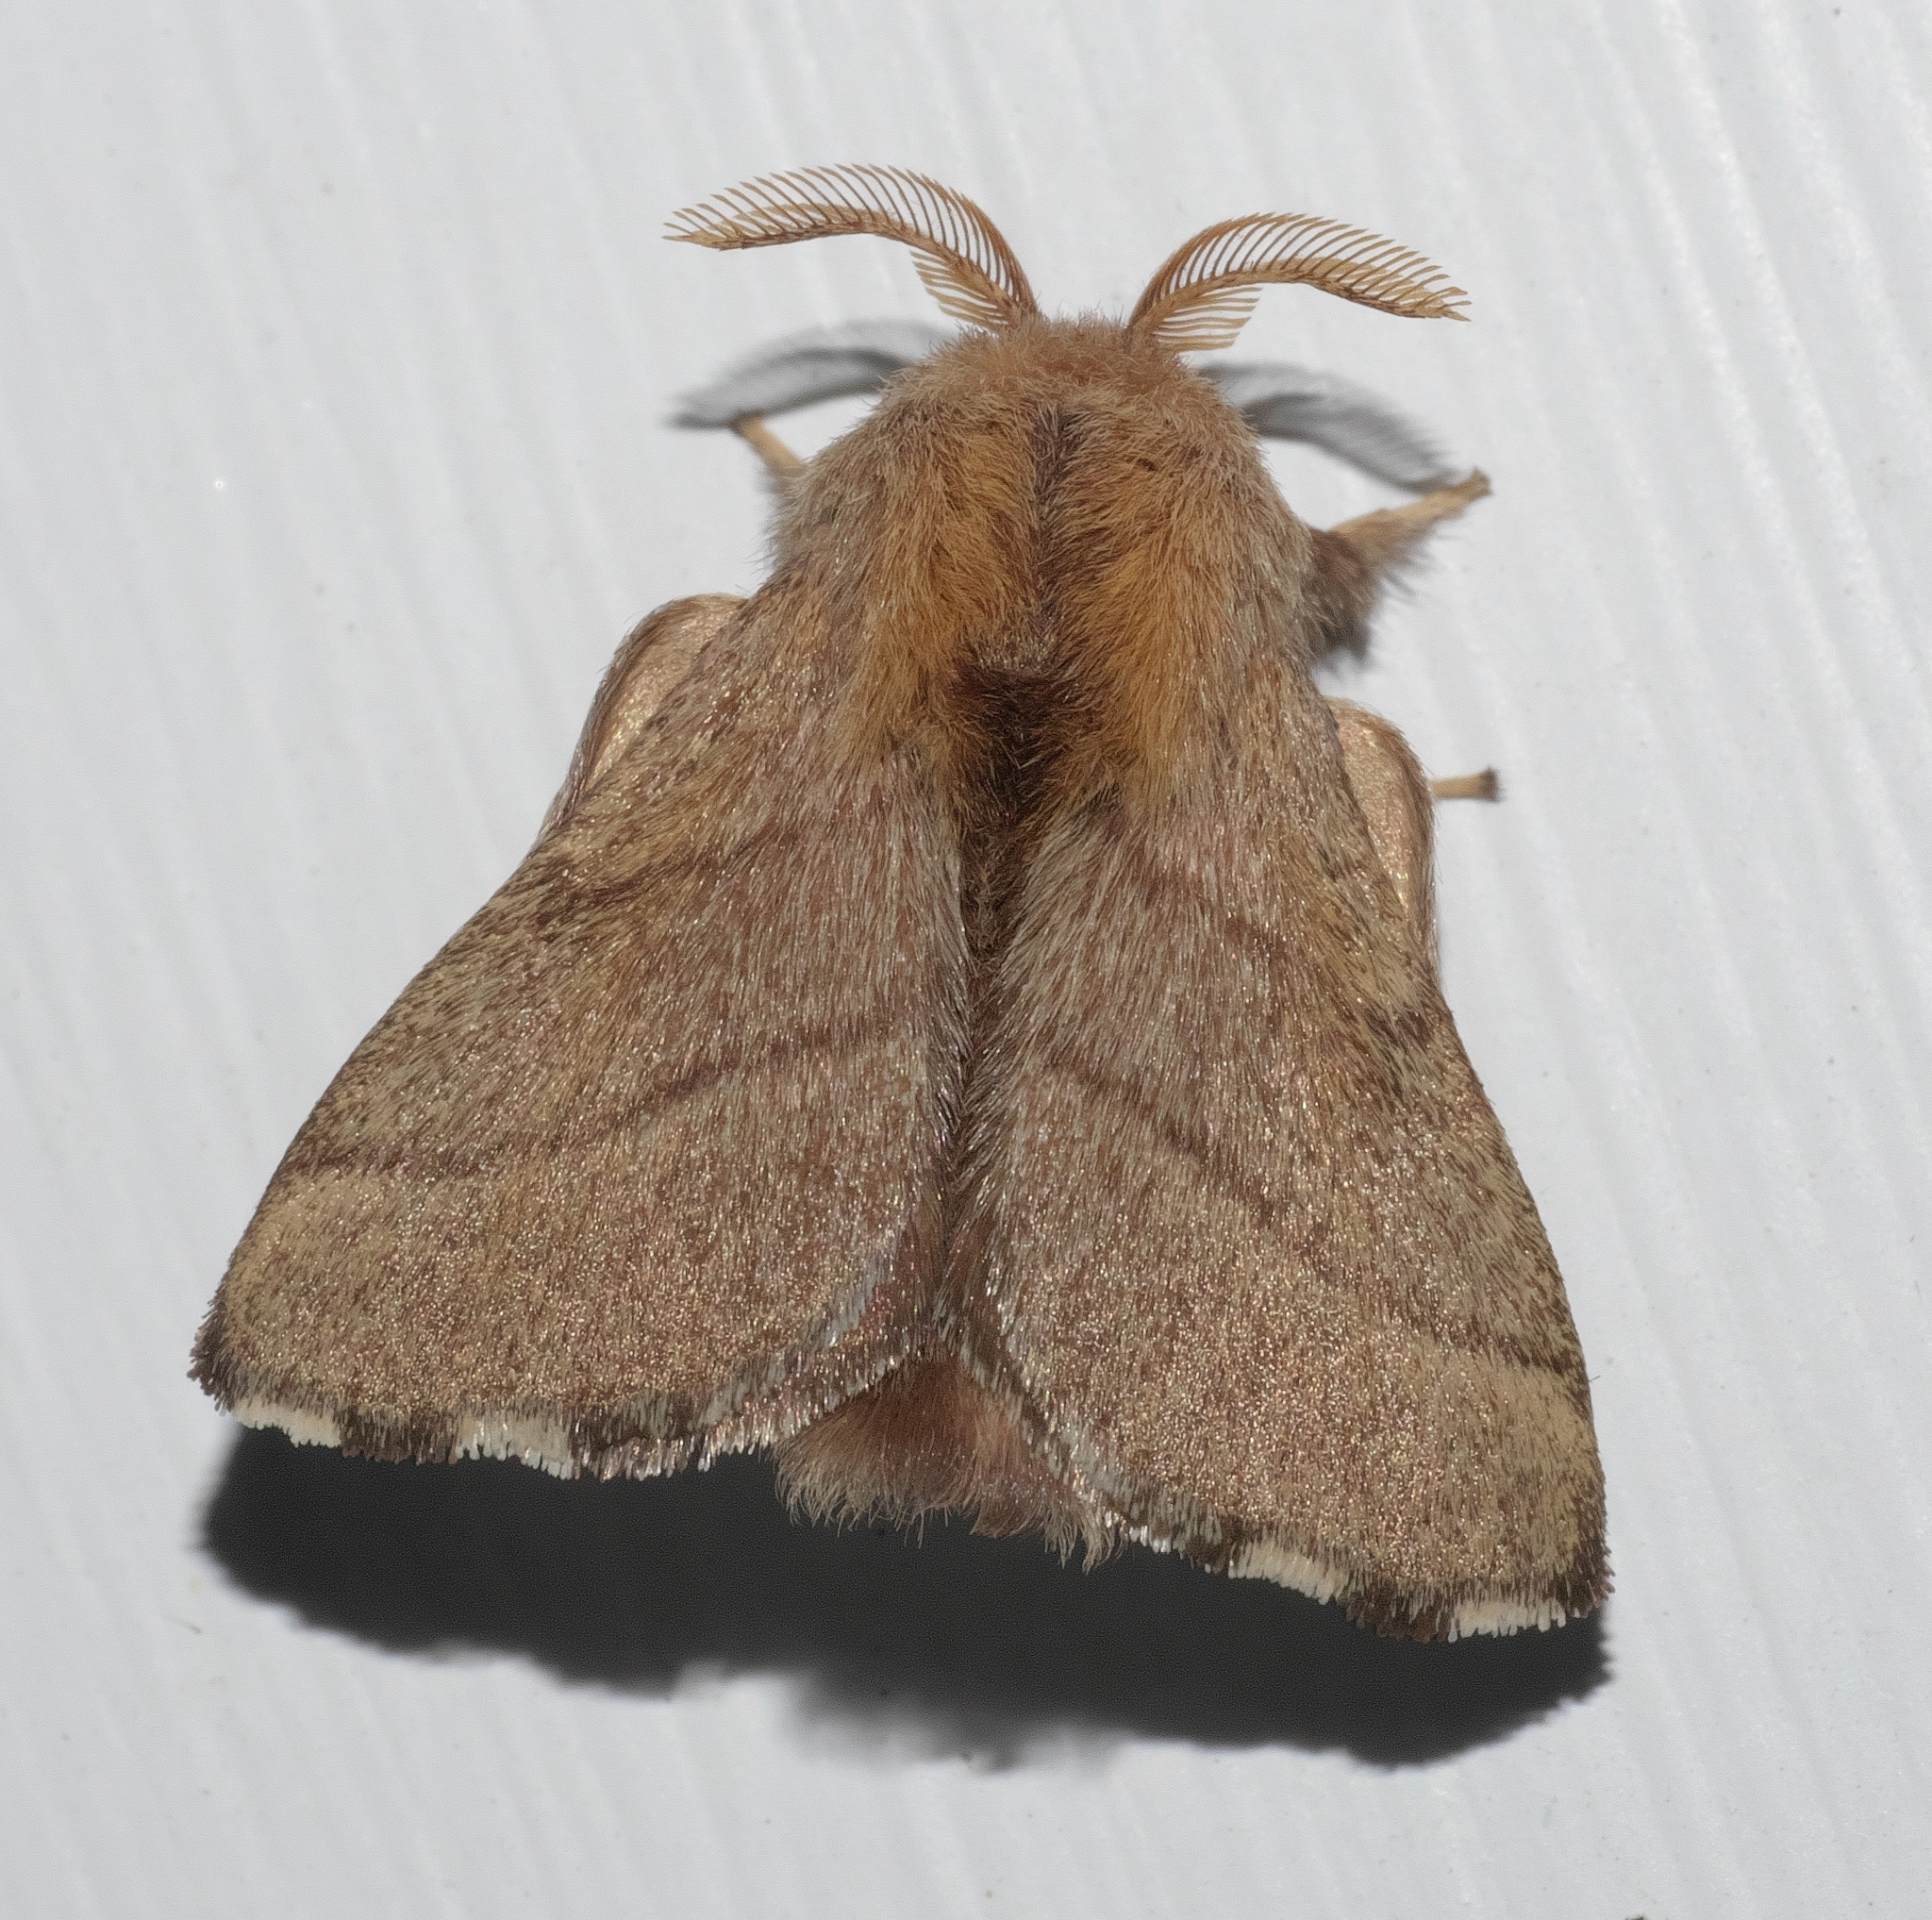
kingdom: Animalia
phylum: Arthropoda
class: Insecta
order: Lepidoptera
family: Lasiocampidae
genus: Malacosoma
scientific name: Malacosoma disstria
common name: Forest tent caterpillar
